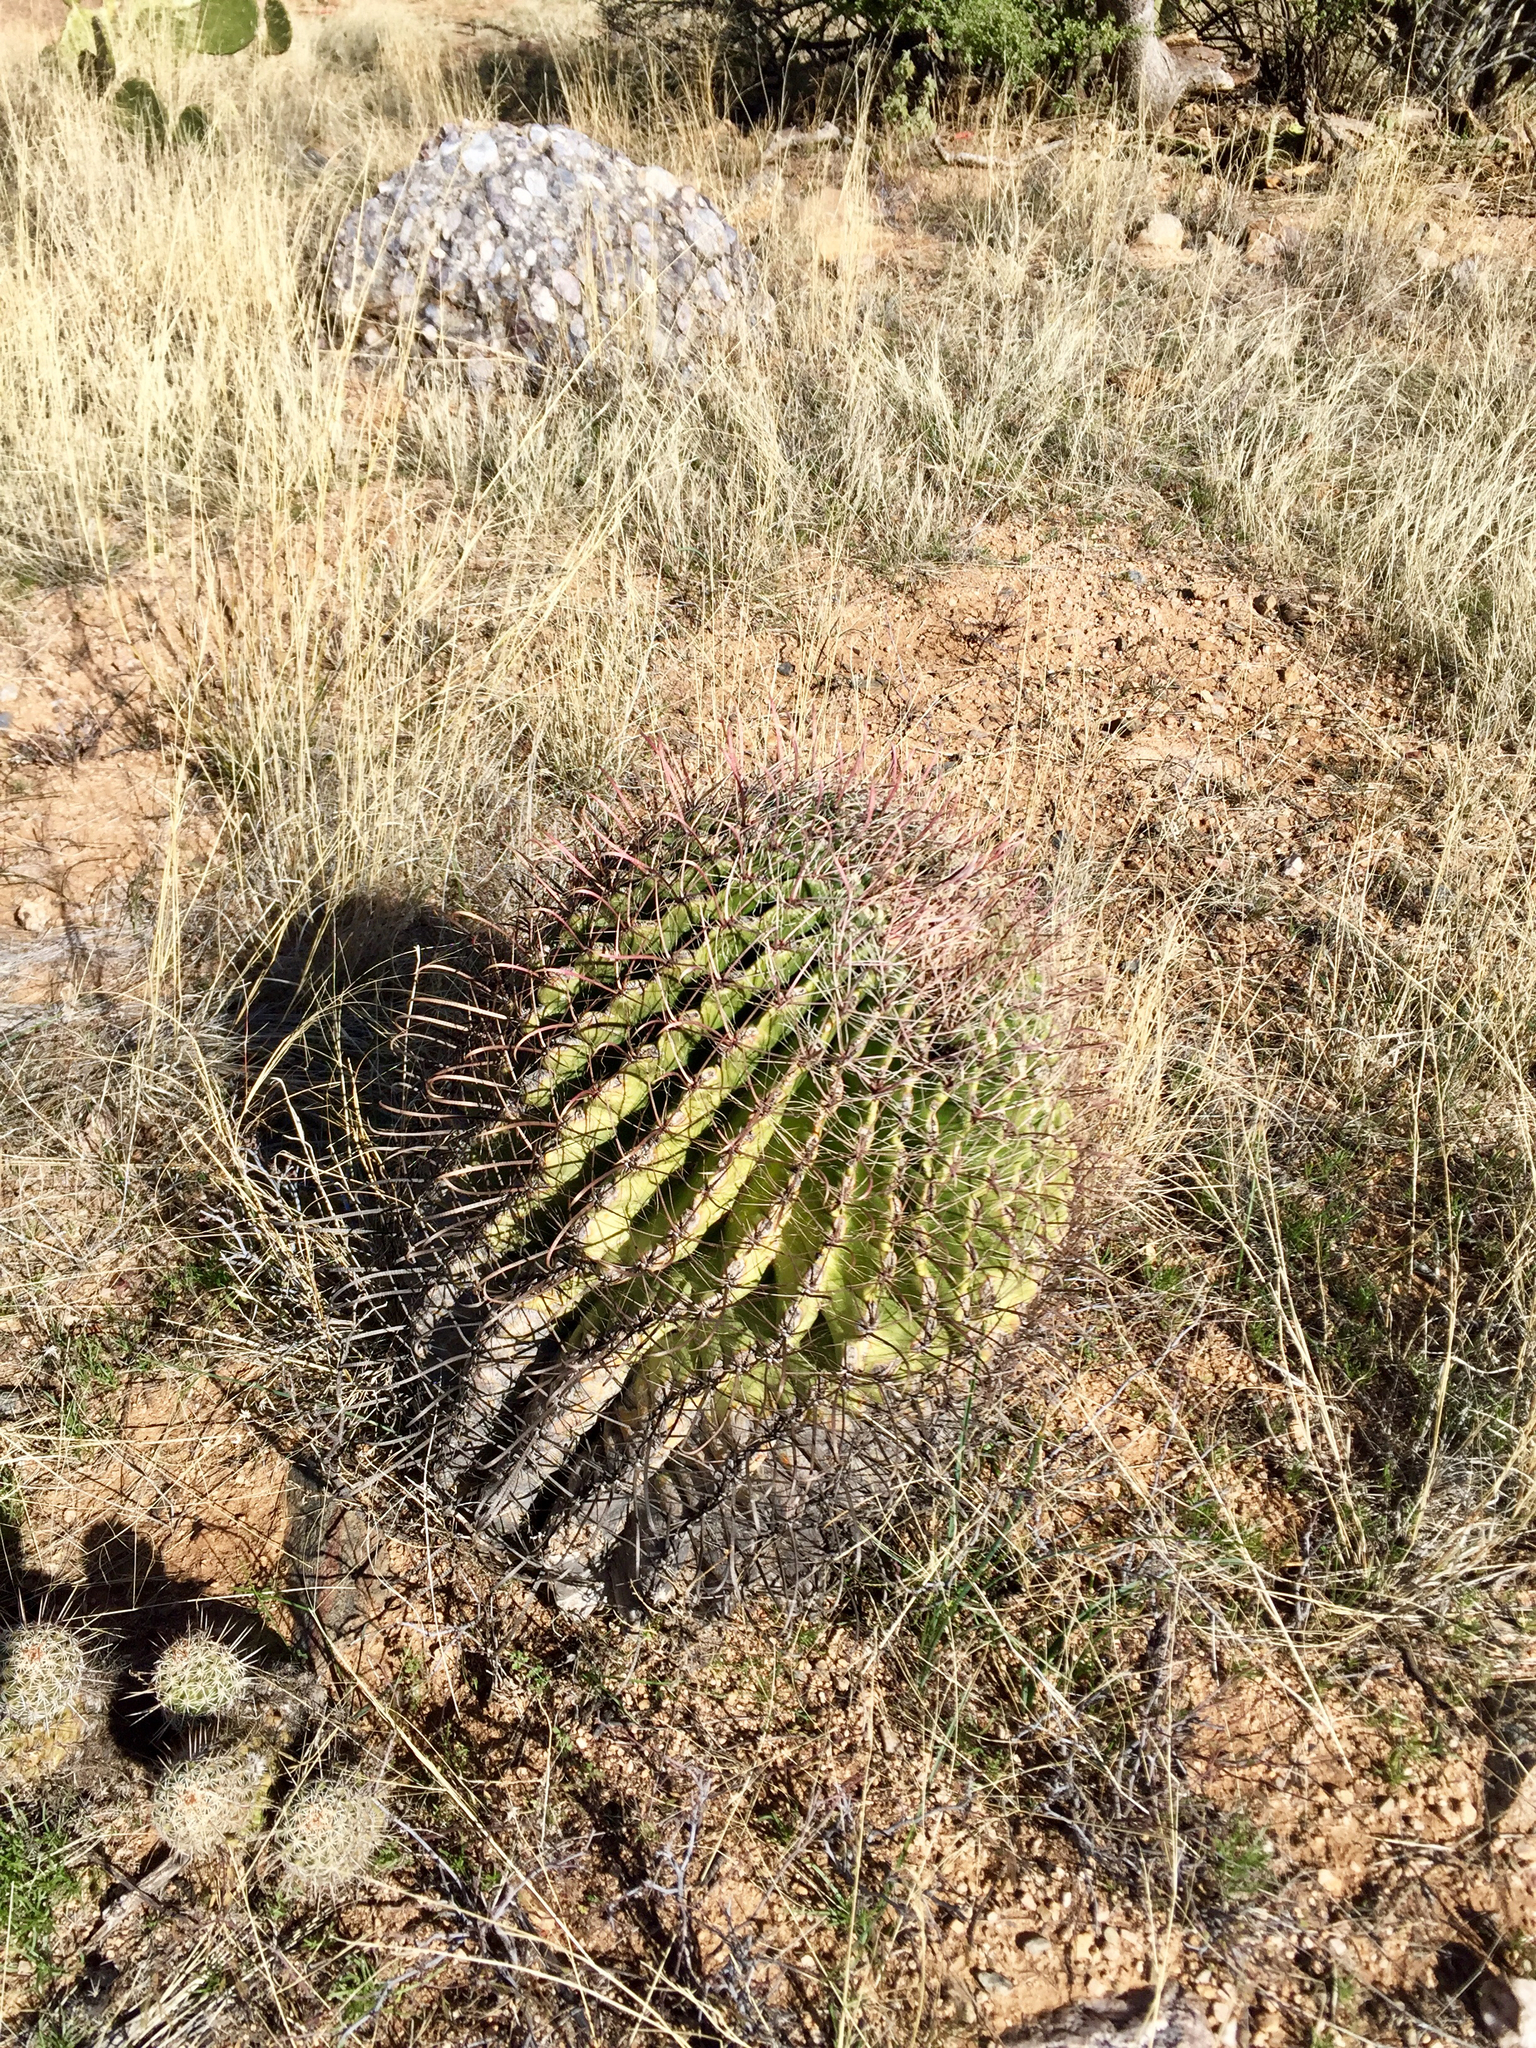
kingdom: Plantae
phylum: Tracheophyta
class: Magnoliopsida
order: Caryophyllales
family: Cactaceae
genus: Ferocactus
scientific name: Ferocactus wislizeni
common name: Candy barrel cactus
